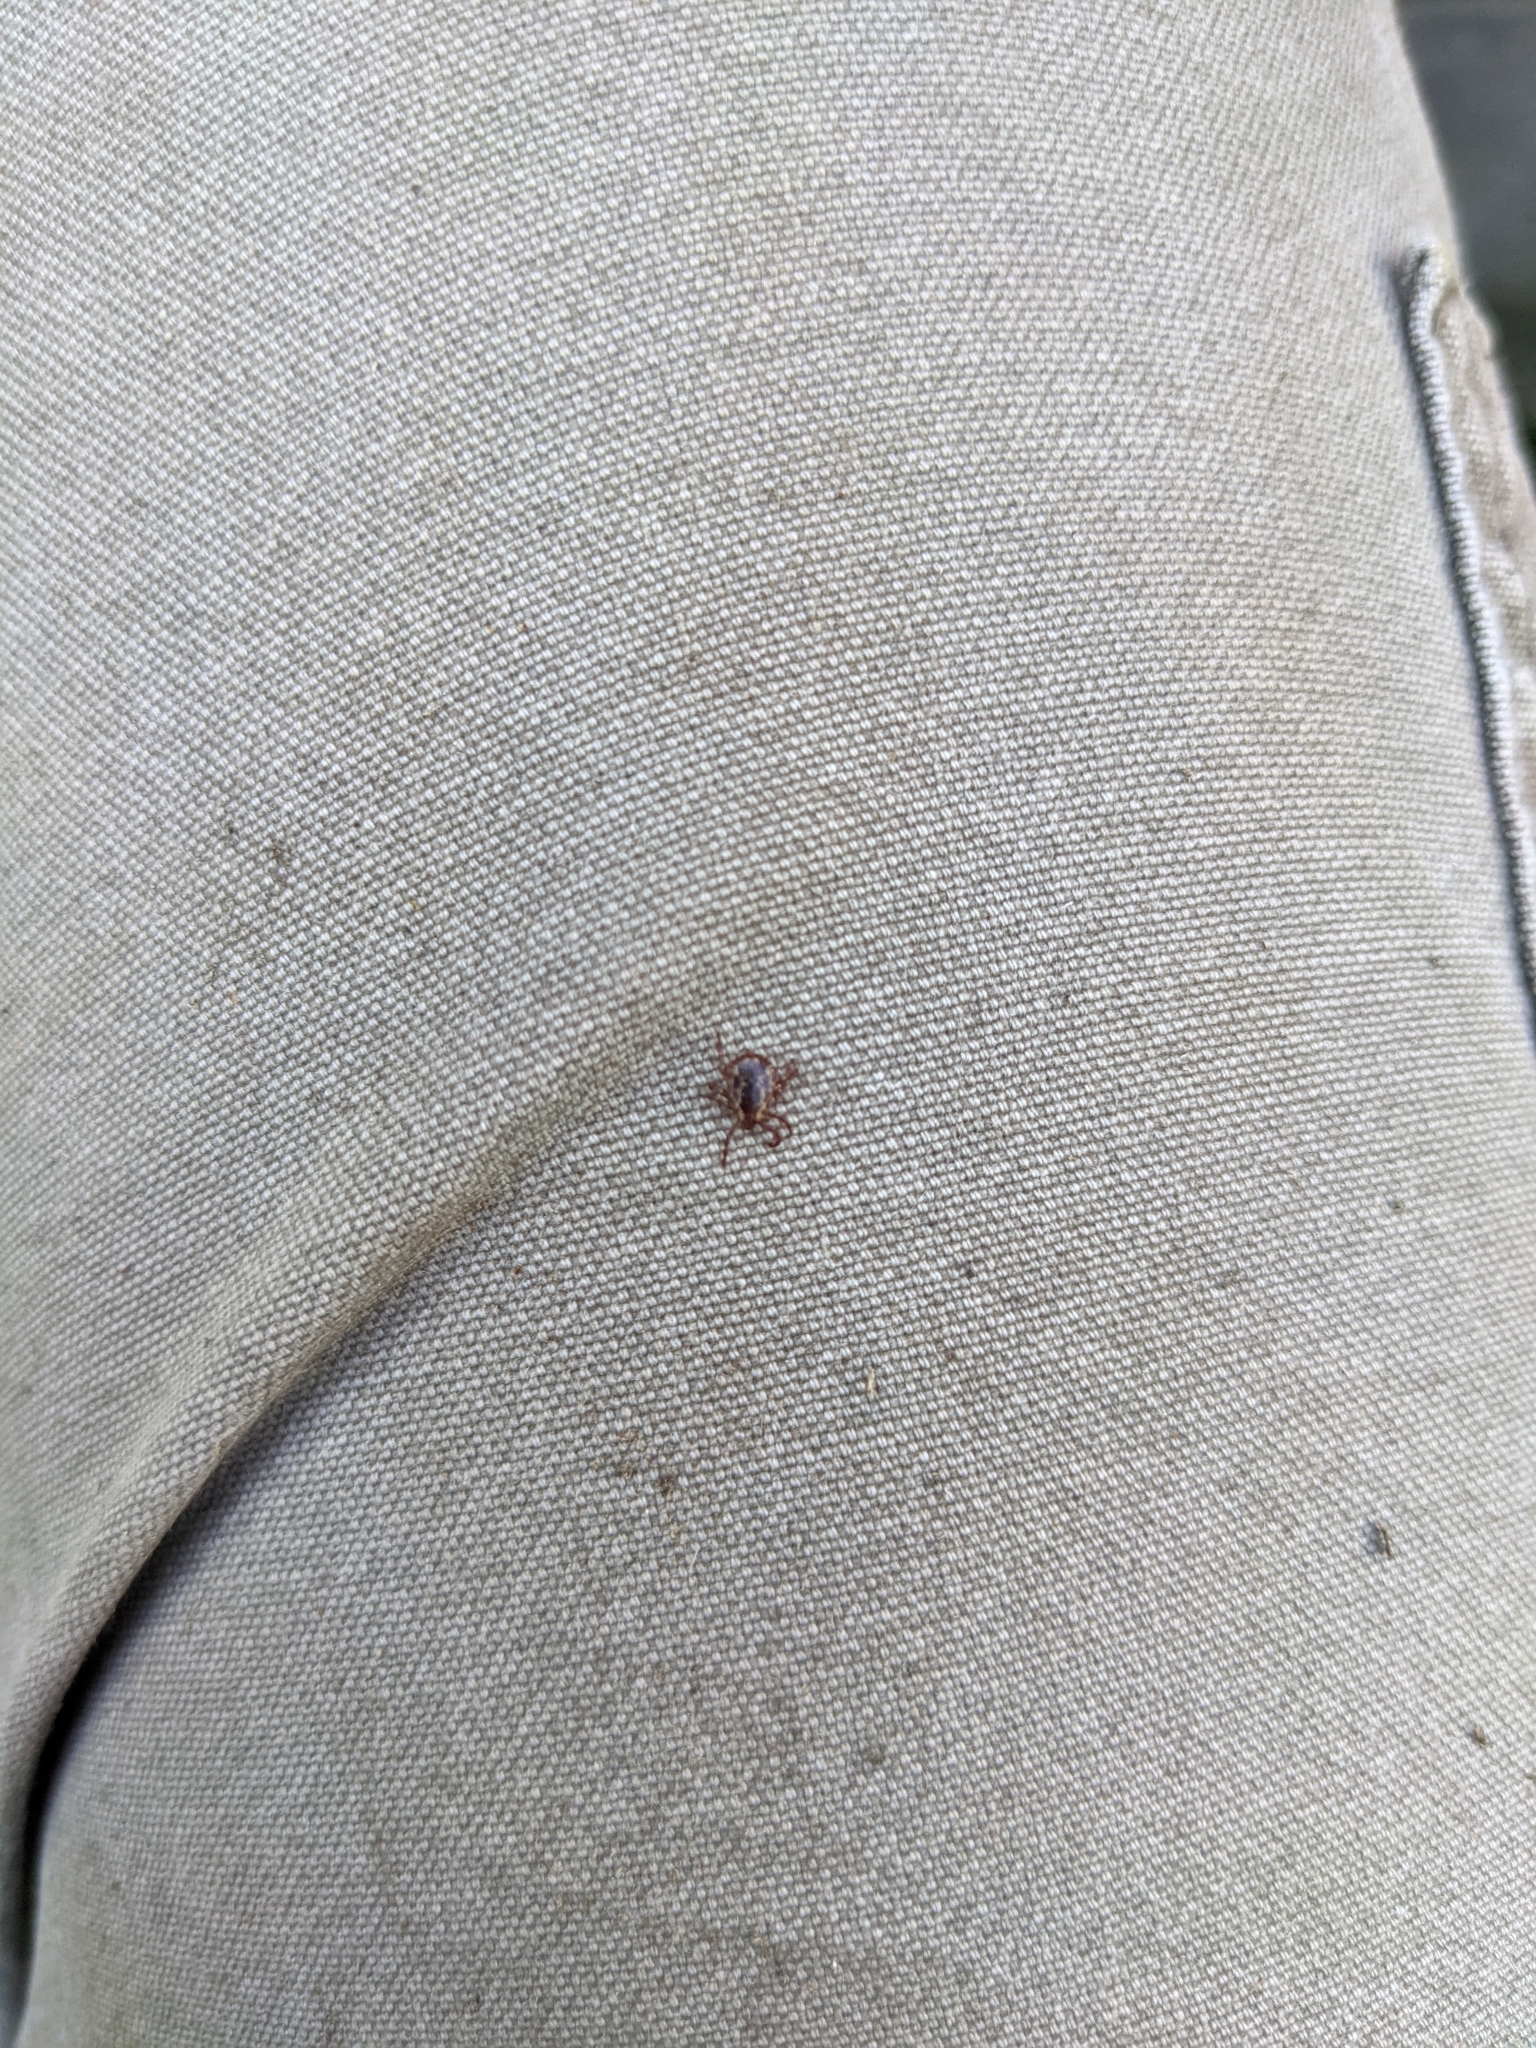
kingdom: Animalia
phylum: Arthropoda
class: Arachnida
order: Ixodida
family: Ixodidae
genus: Dermacentor
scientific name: Dermacentor variabilis
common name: American dog tick
